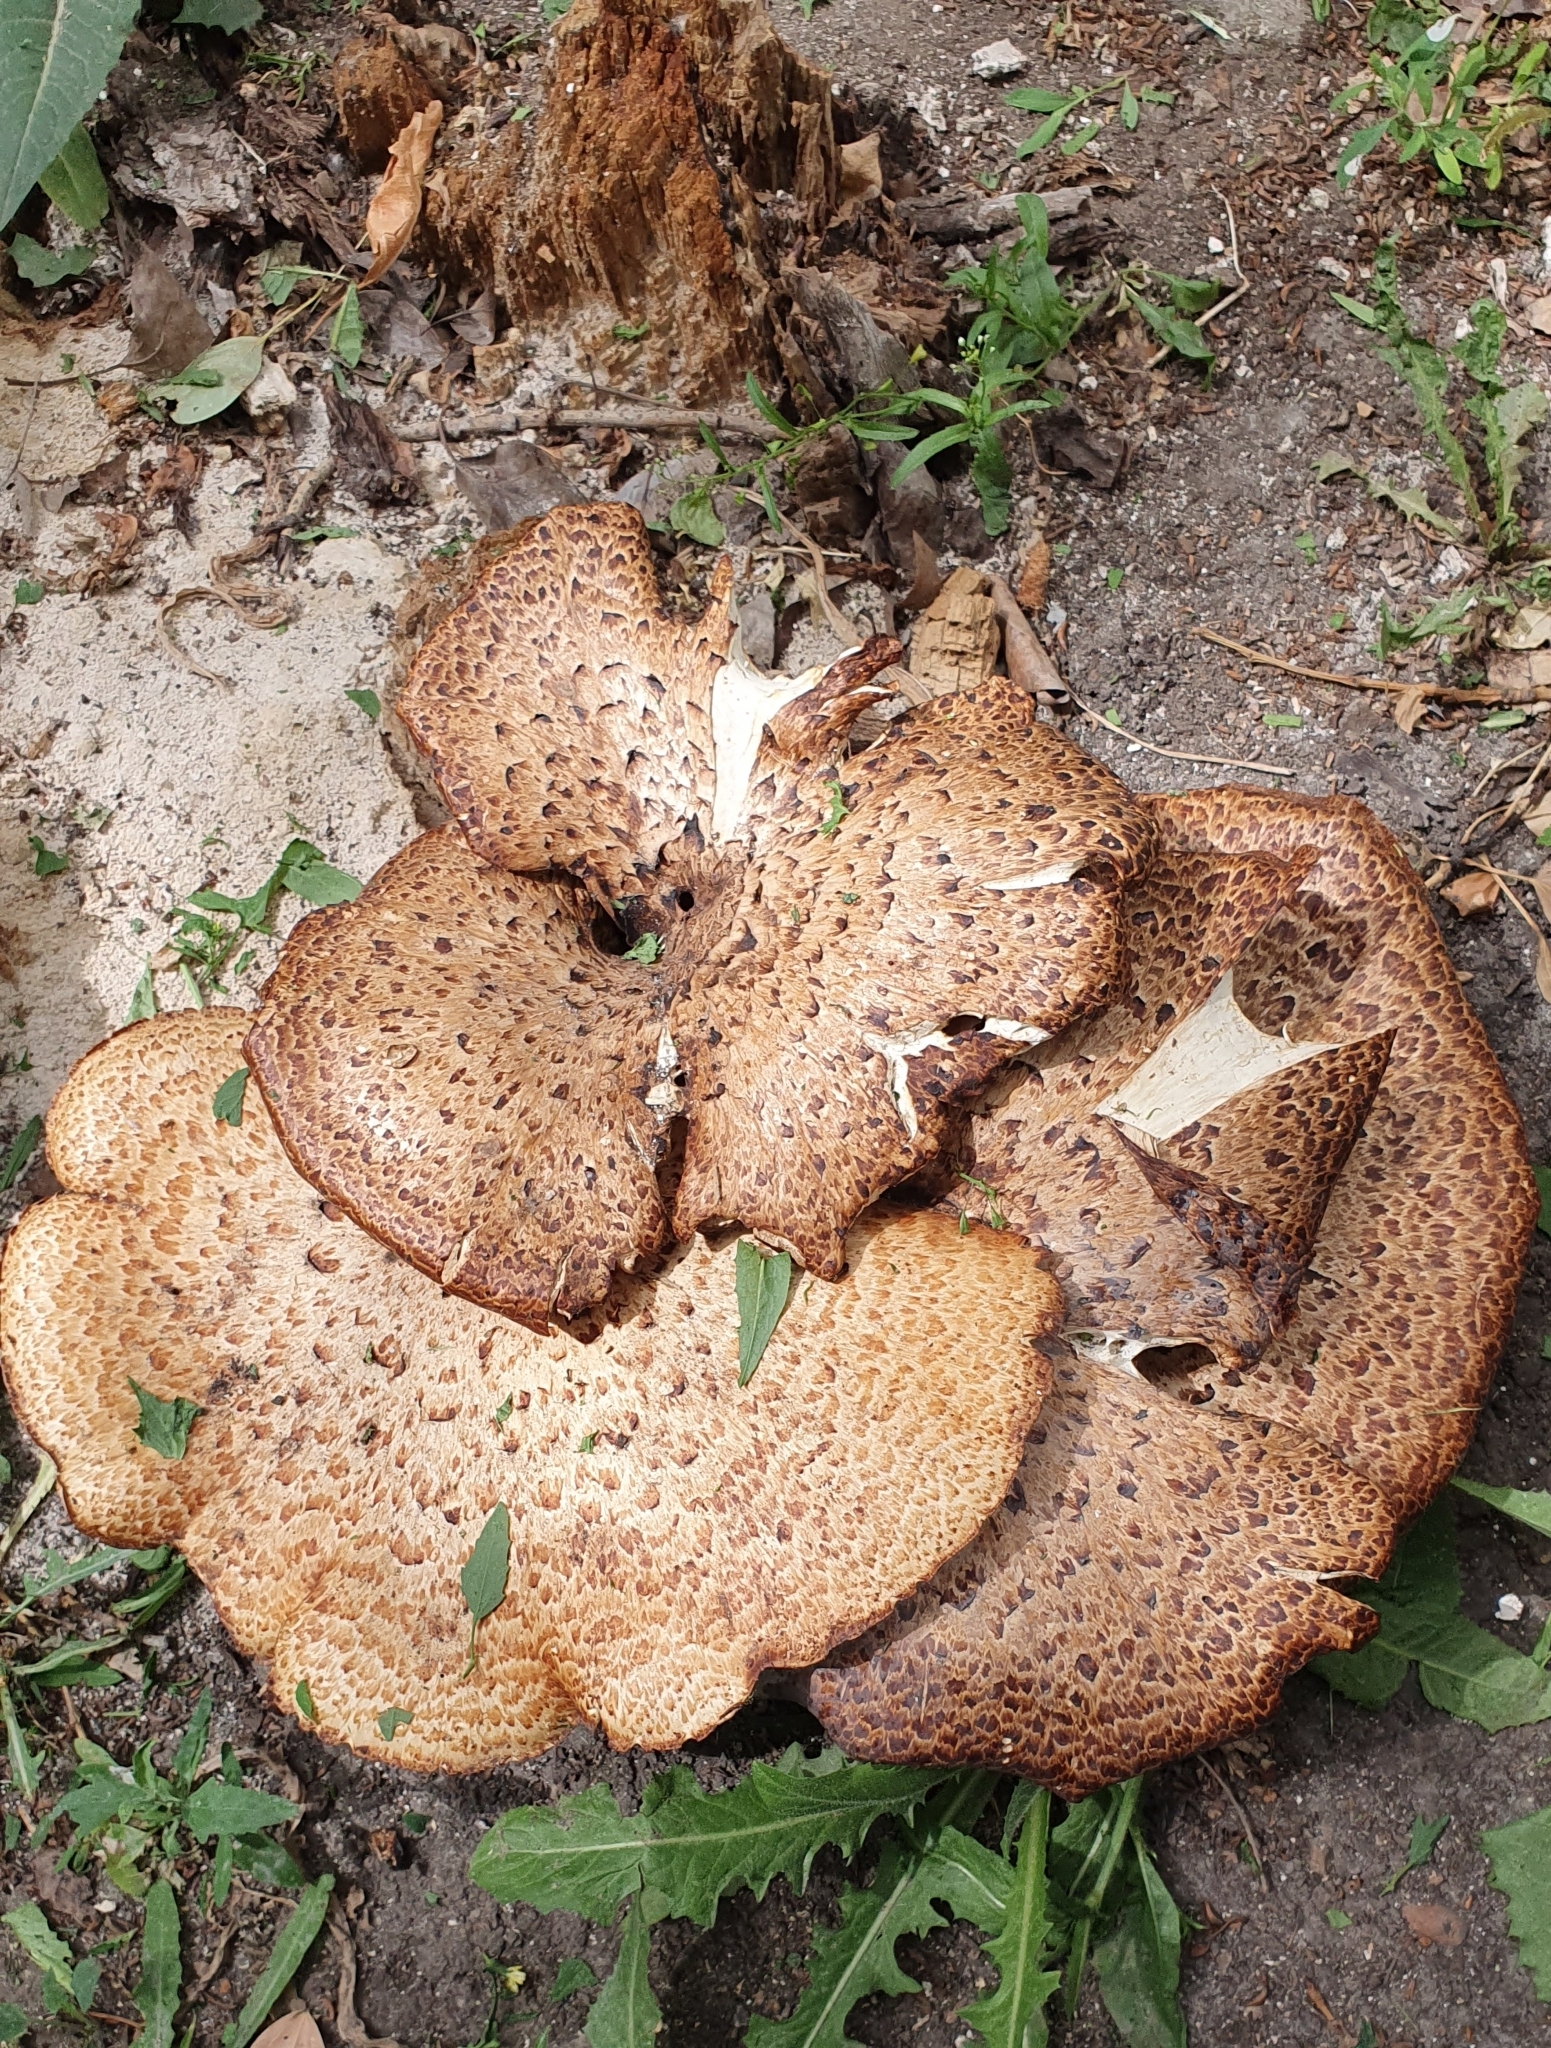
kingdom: Fungi
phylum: Basidiomycota
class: Agaricomycetes
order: Polyporales
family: Polyporaceae
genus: Cerioporus
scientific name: Cerioporus squamosus
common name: Dryad's saddle
